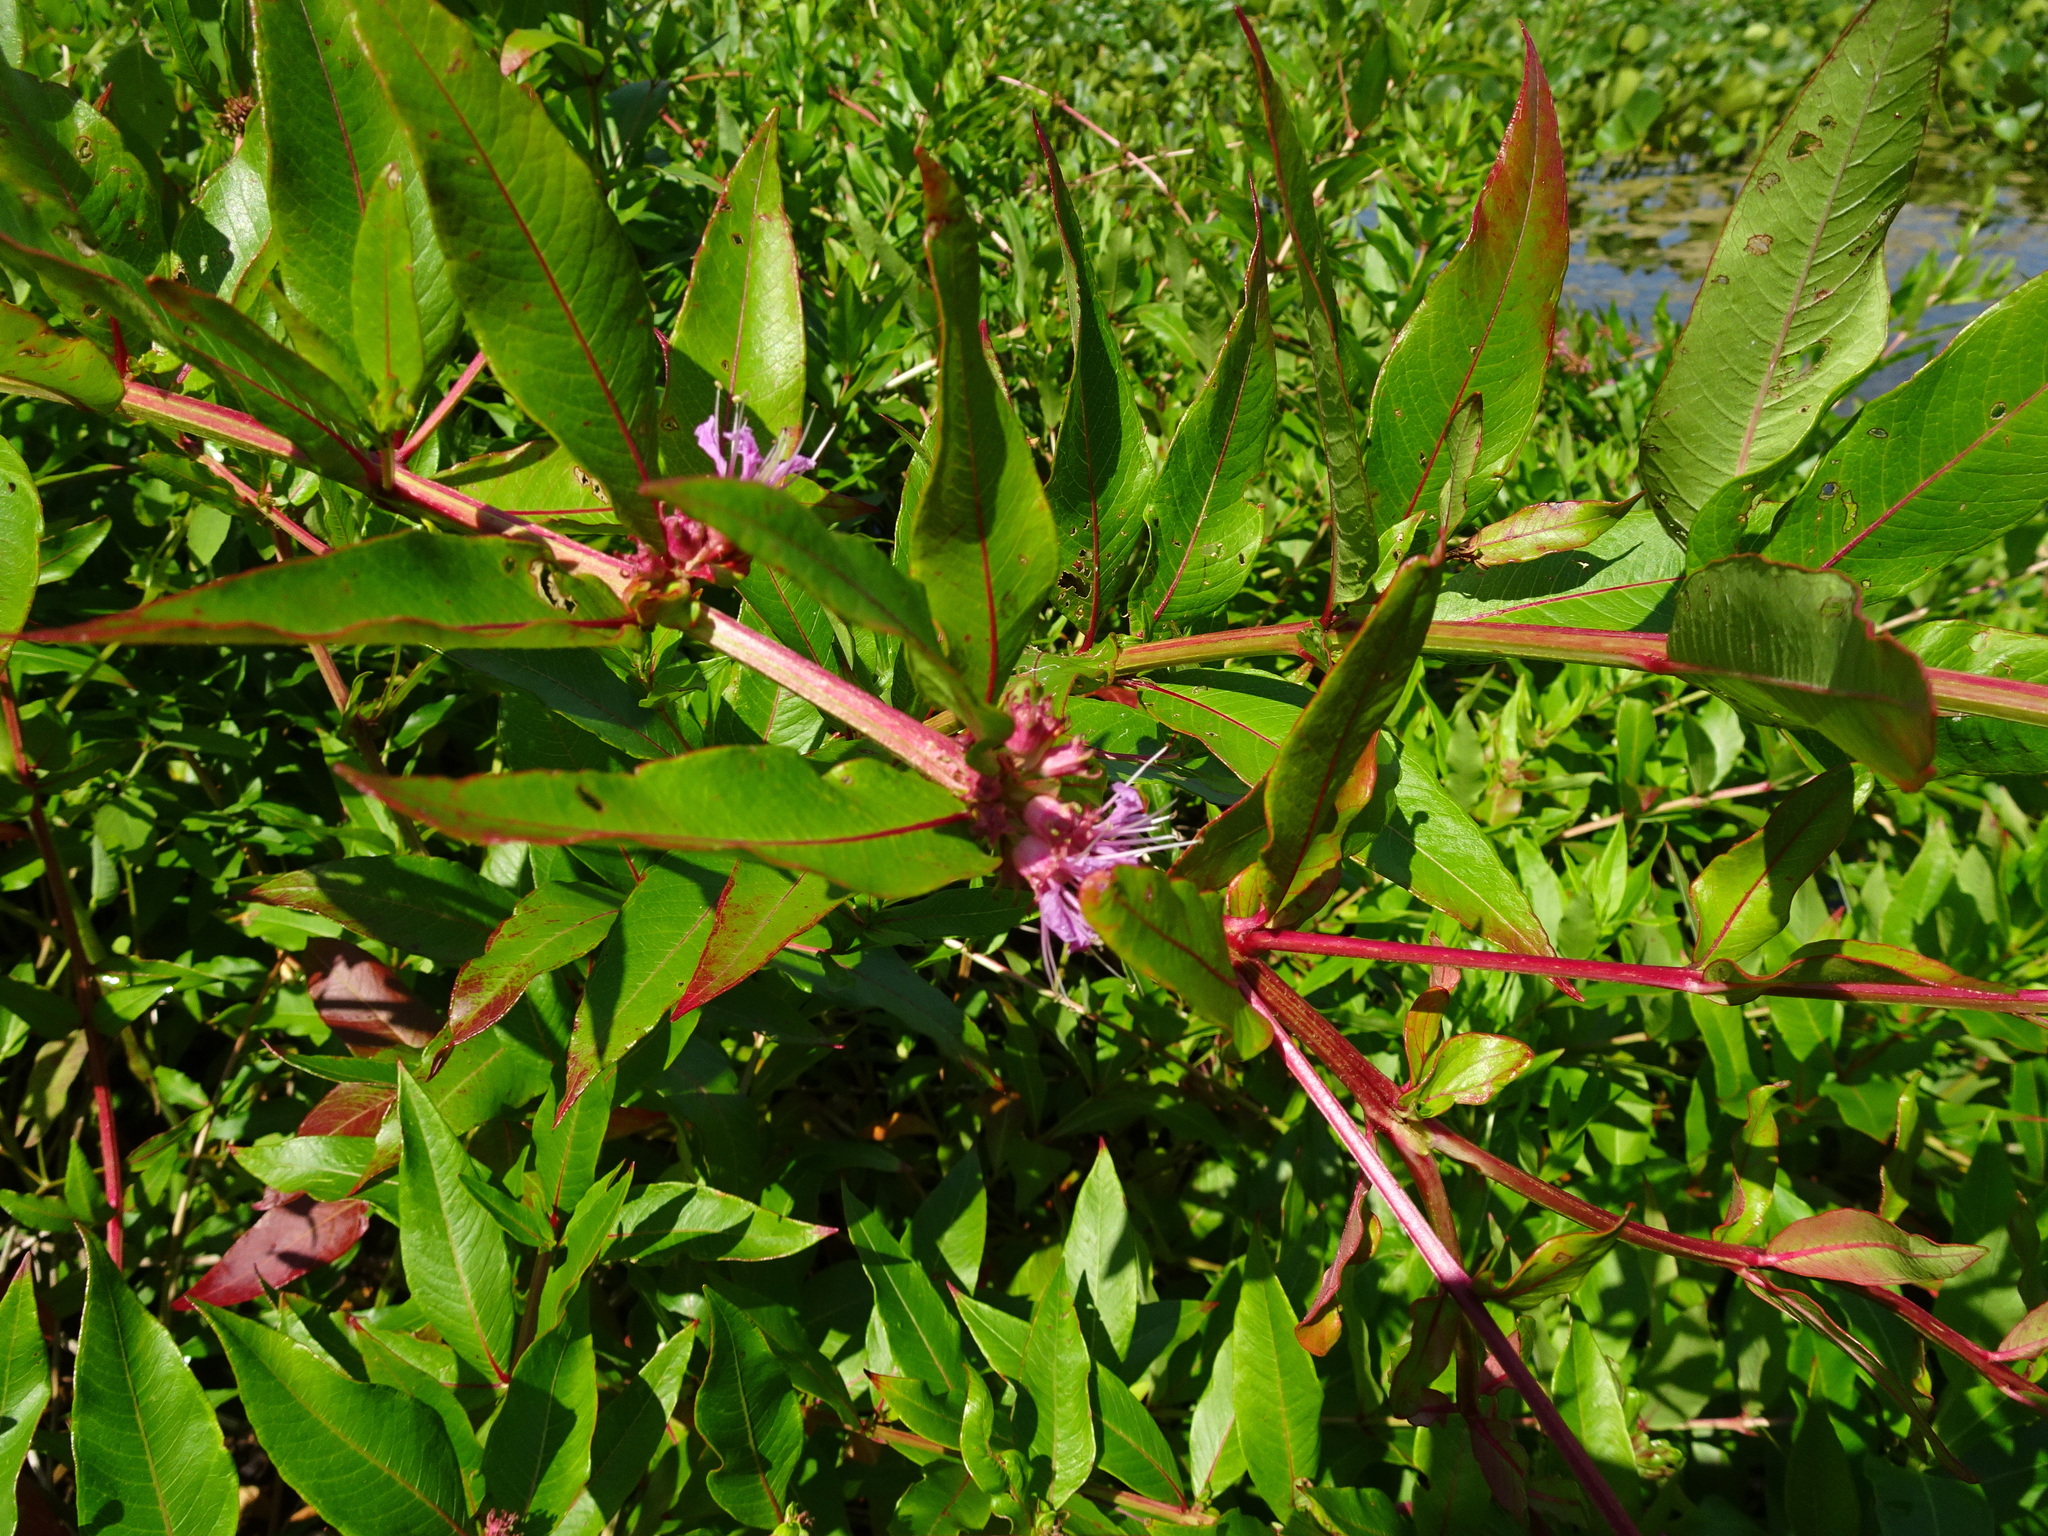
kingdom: Plantae
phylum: Tracheophyta
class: Magnoliopsida
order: Myrtales
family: Lythraceae
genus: Decodon
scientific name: Decodon verticillatus
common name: Hairy swamp loosestrife
